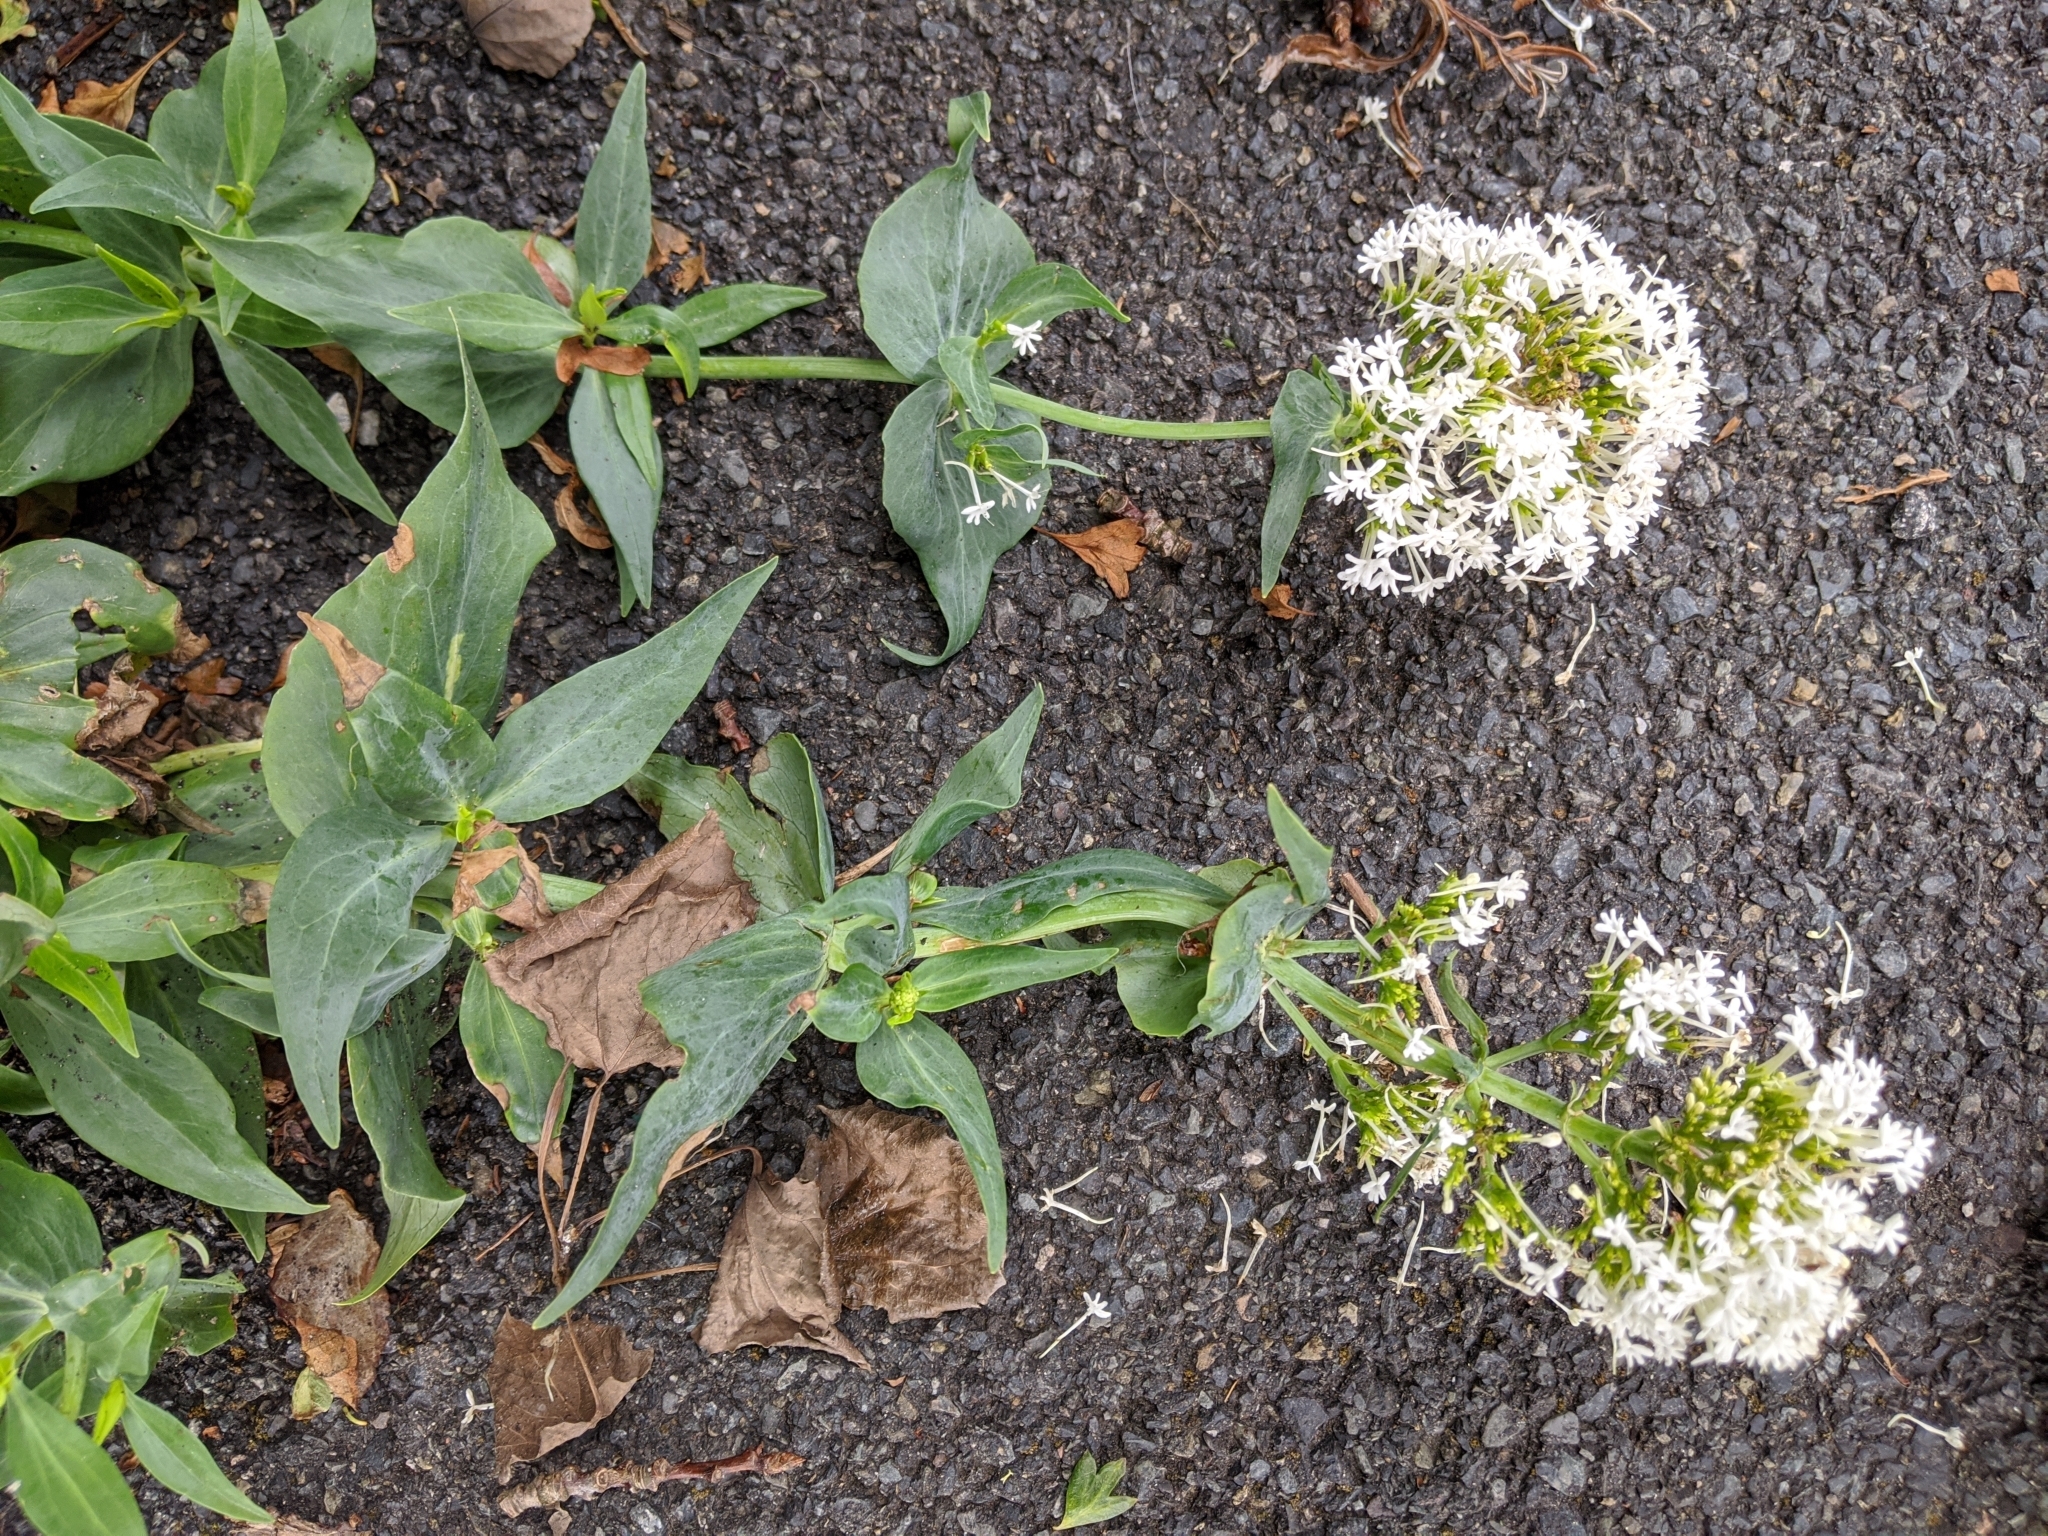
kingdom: Plantae
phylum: Tracheophyta
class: Magnoliopsida
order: Dipsacales
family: Caprifoliaceae
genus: Centranthus
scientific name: Centranthus ruber
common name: Red valerian
